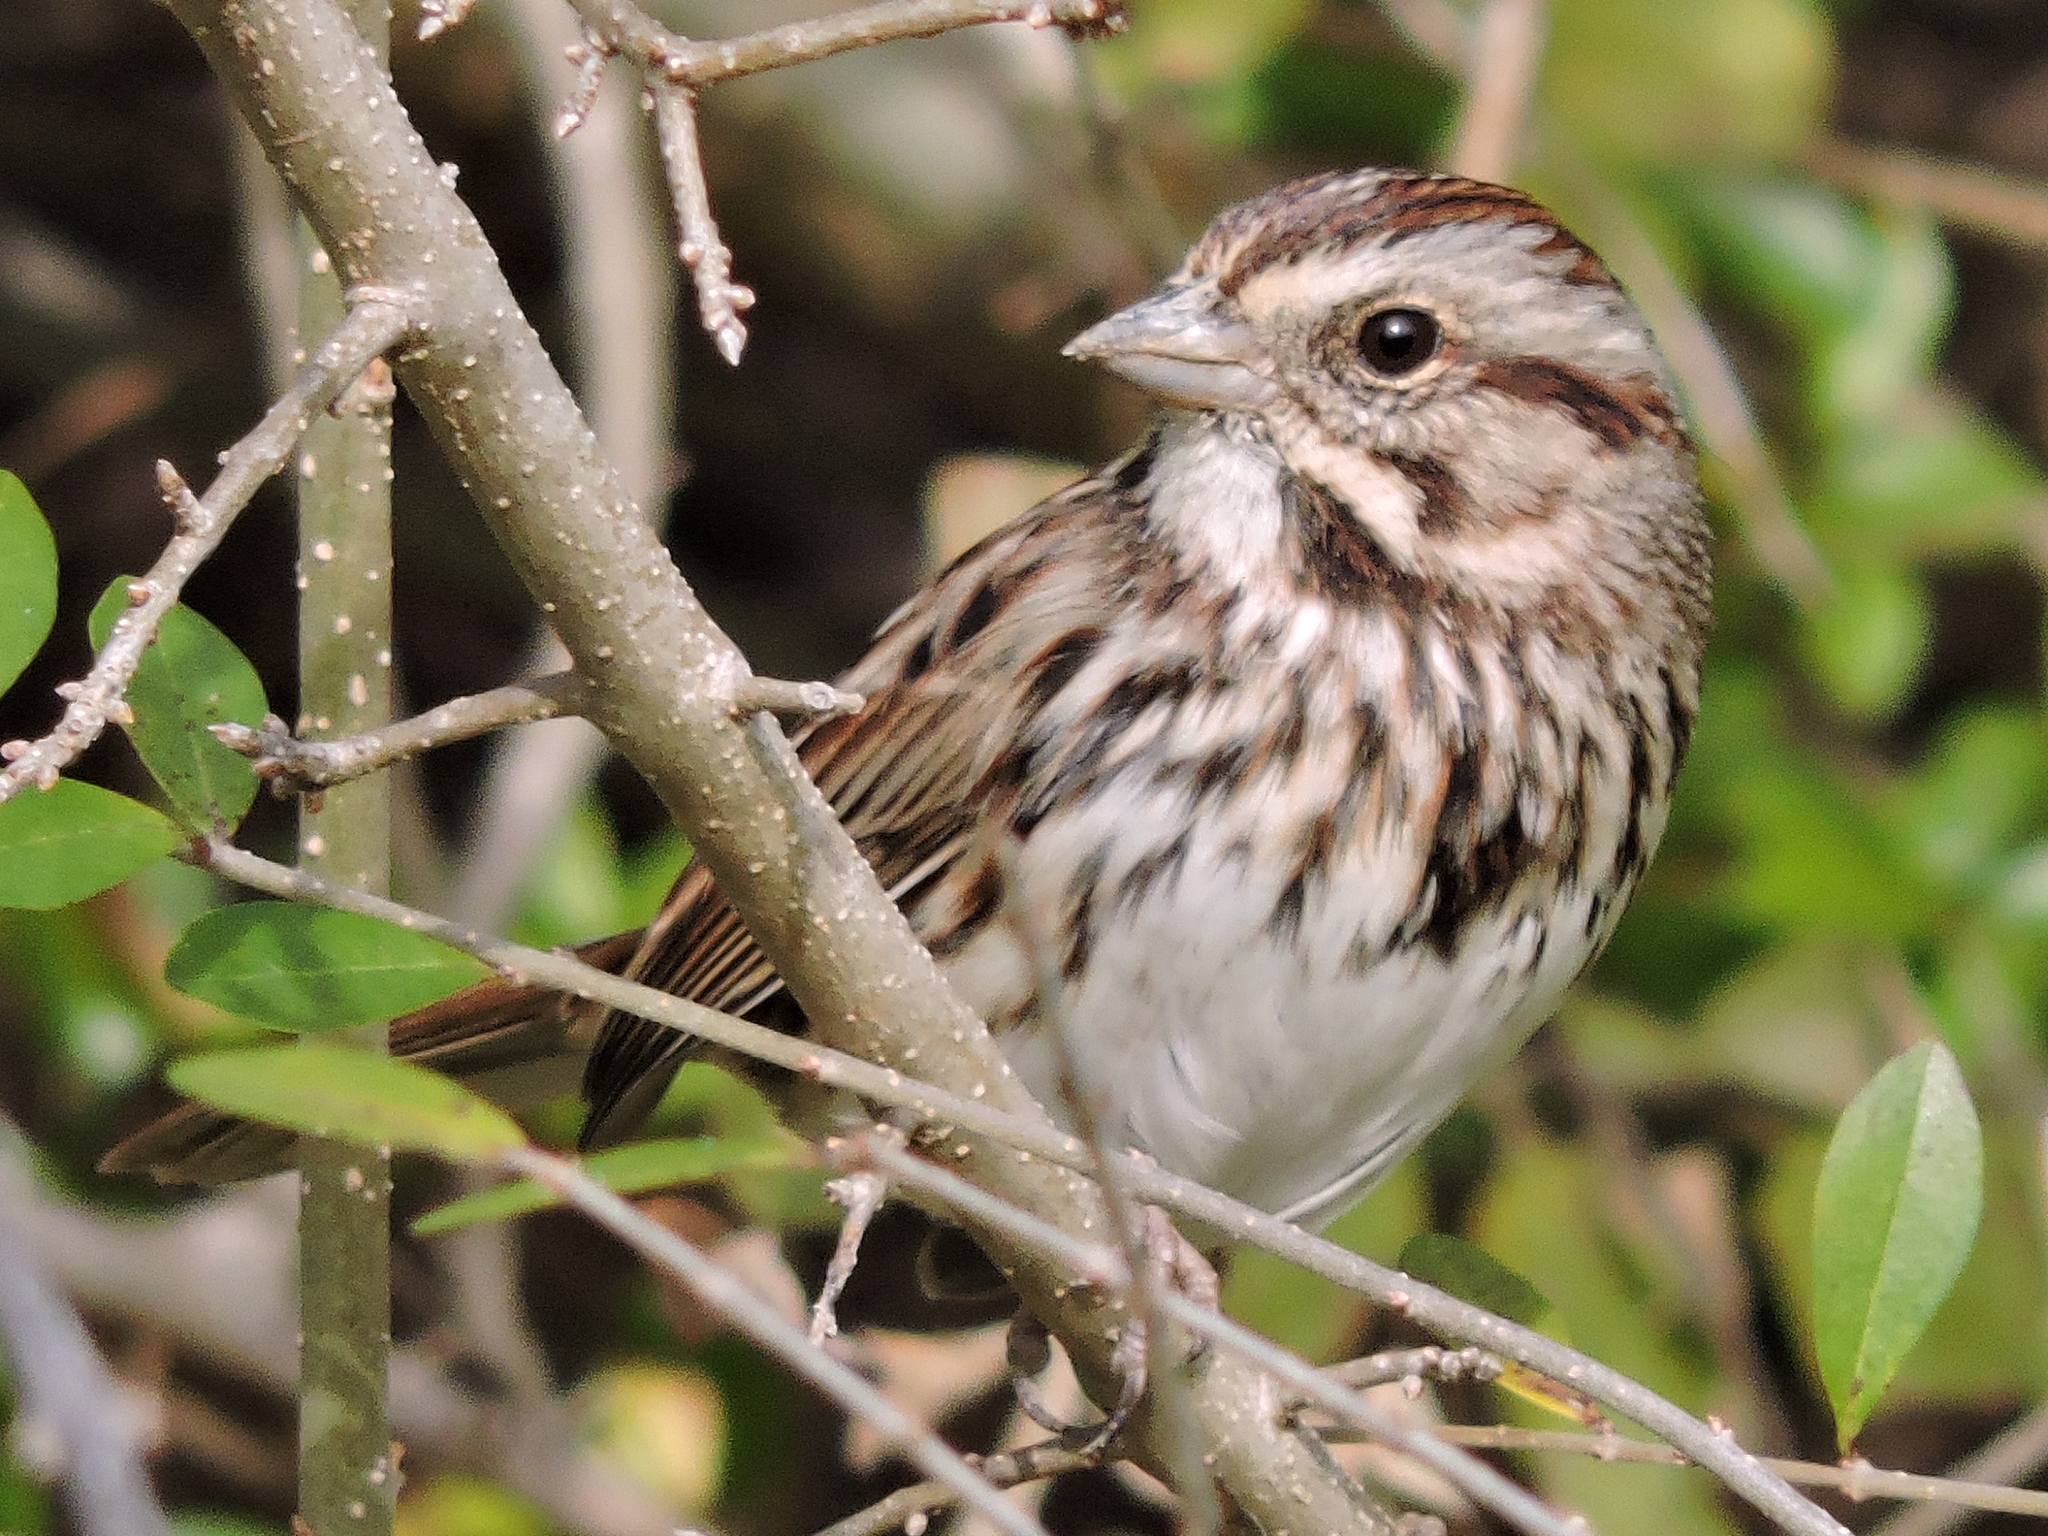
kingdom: Animalia
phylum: Chordata
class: Aves
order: Passeriformes
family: Passerellidae
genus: Melospiza
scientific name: Melospiza melodia
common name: Song sparrow
